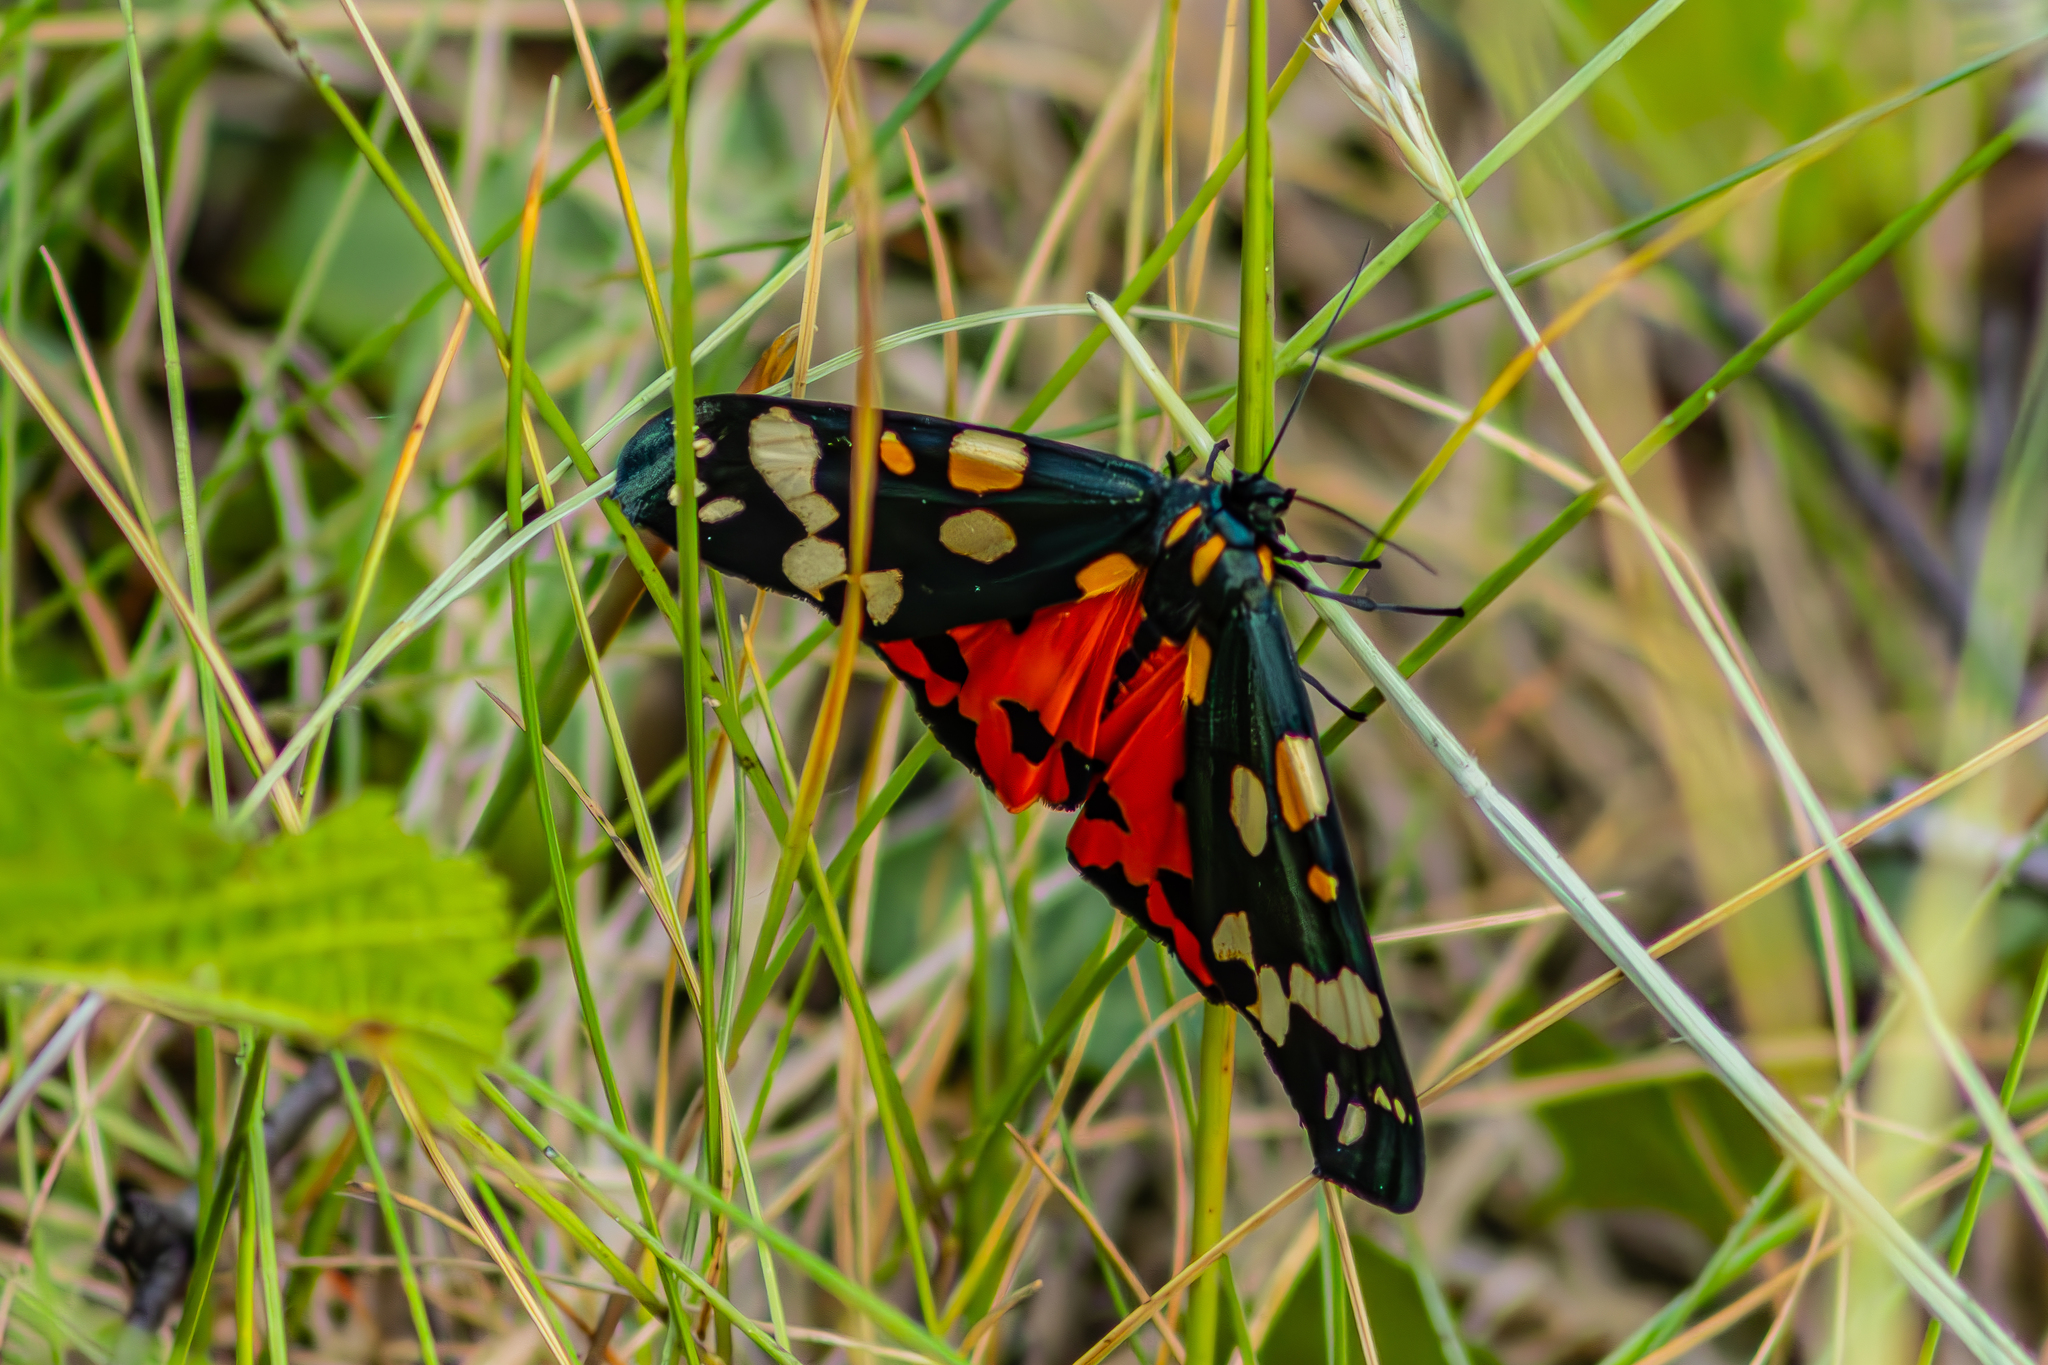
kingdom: Animalia
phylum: Arthropoda
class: Insecta
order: Lepidoptera
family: Erebidae
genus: Callimorpha
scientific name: Callimorpha dominula
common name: Scarlet tiger
